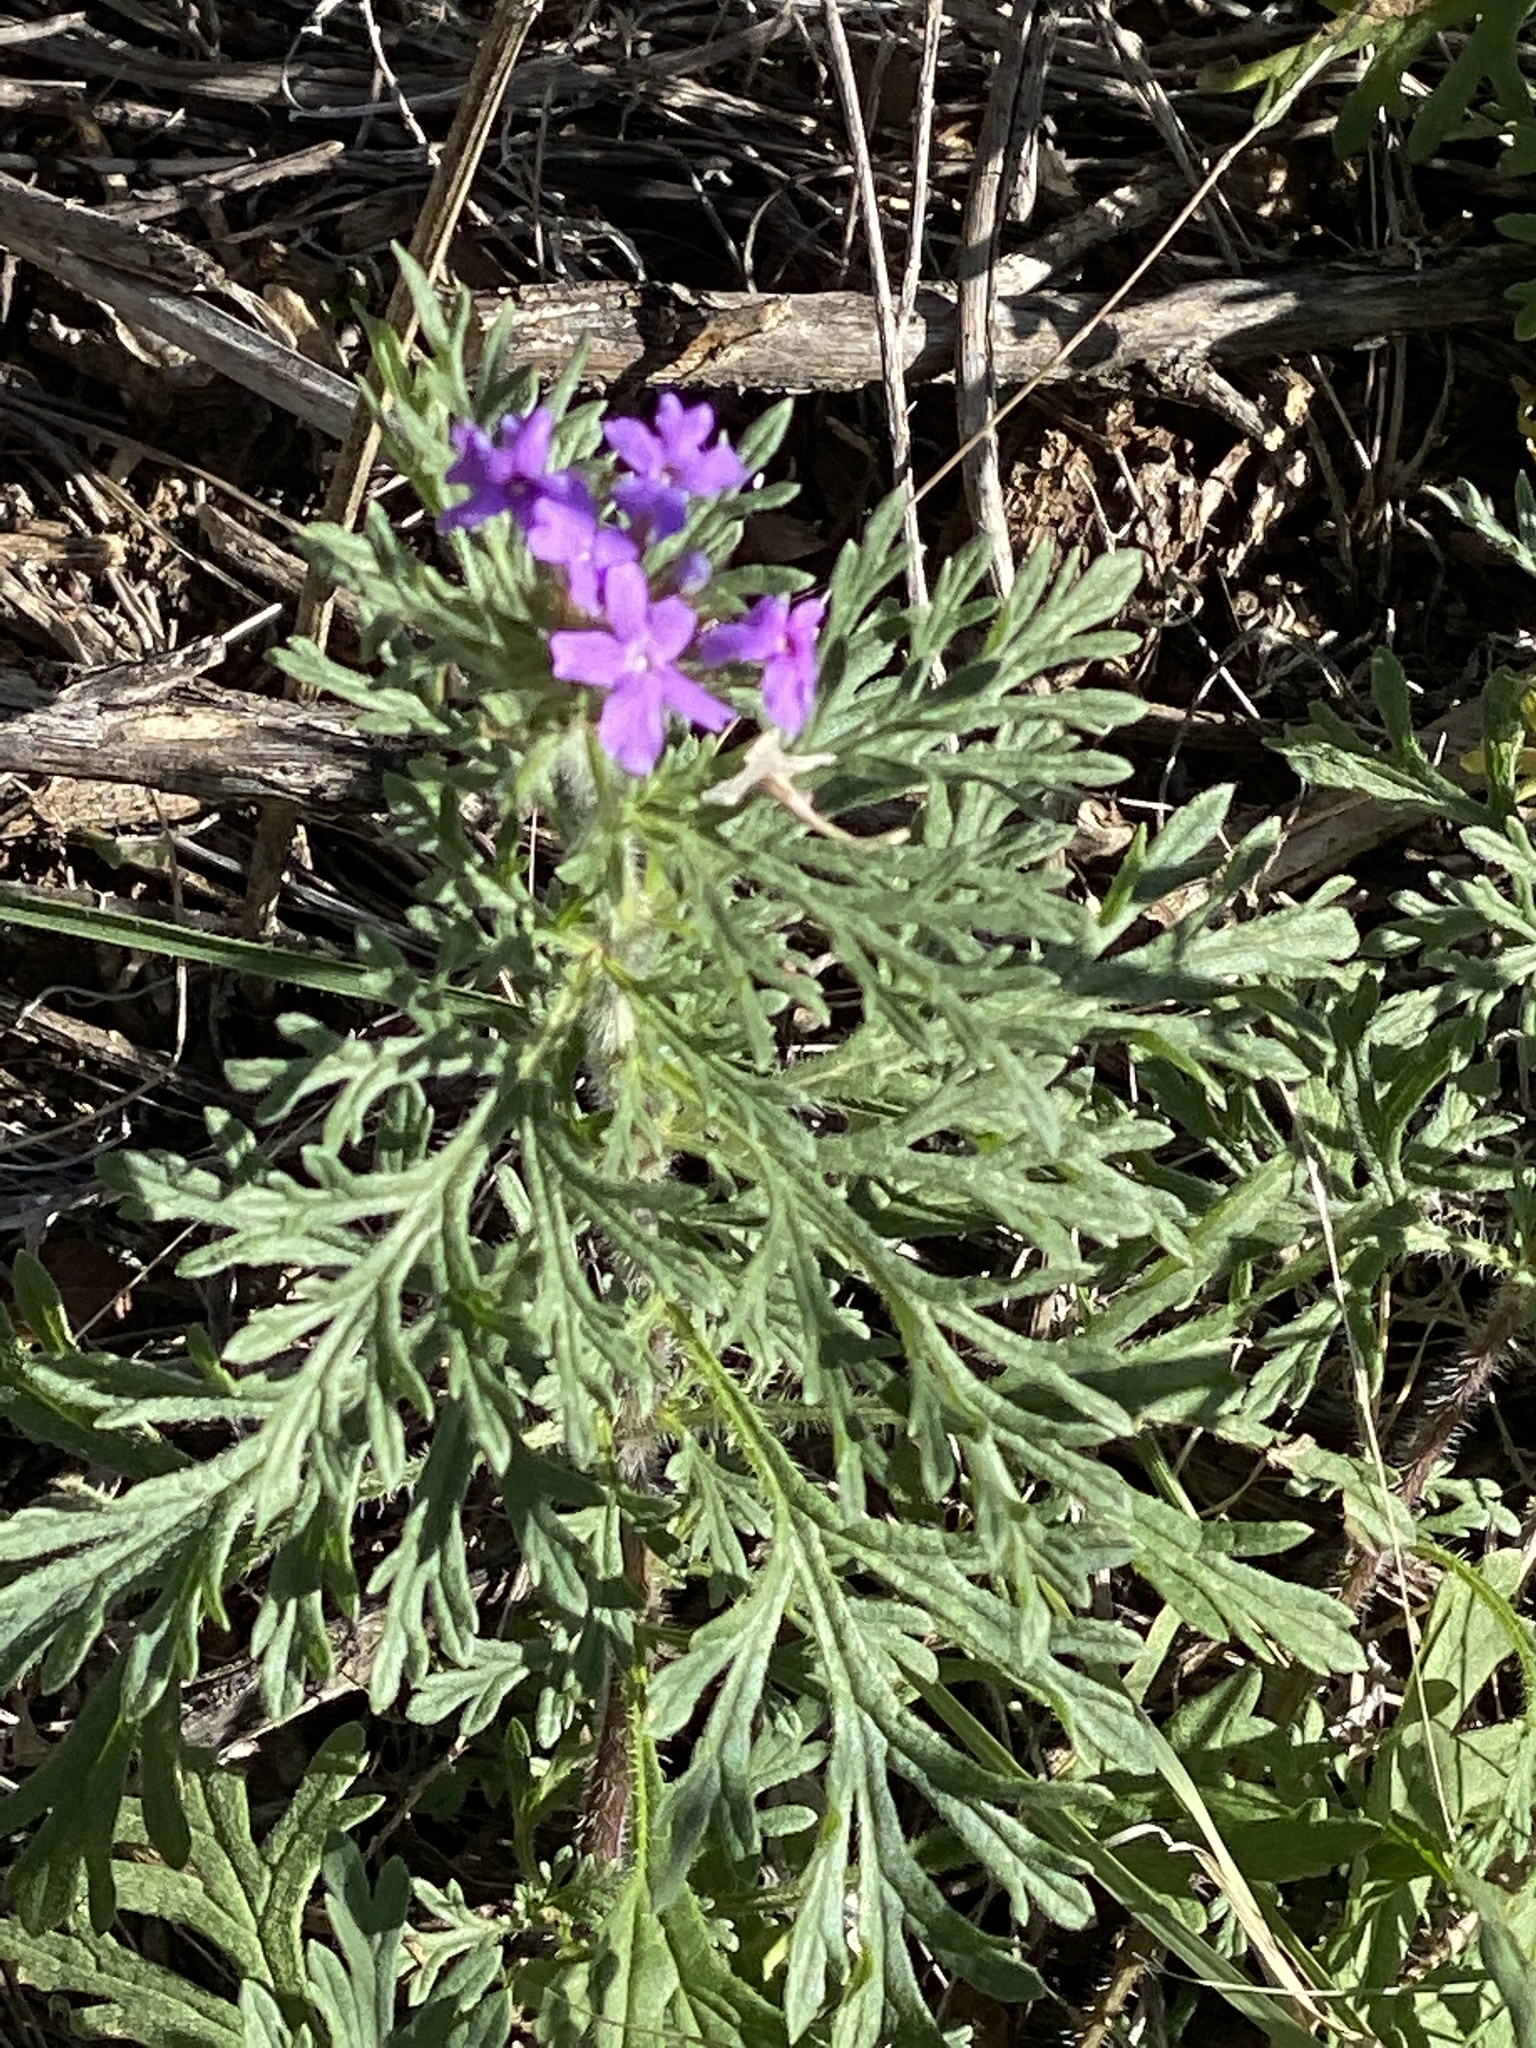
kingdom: Plantae
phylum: Tracheophyta
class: Magnoliopsida
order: Lamiales
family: Verbenaceae
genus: Verbena
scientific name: Verbena bipinnatifida
